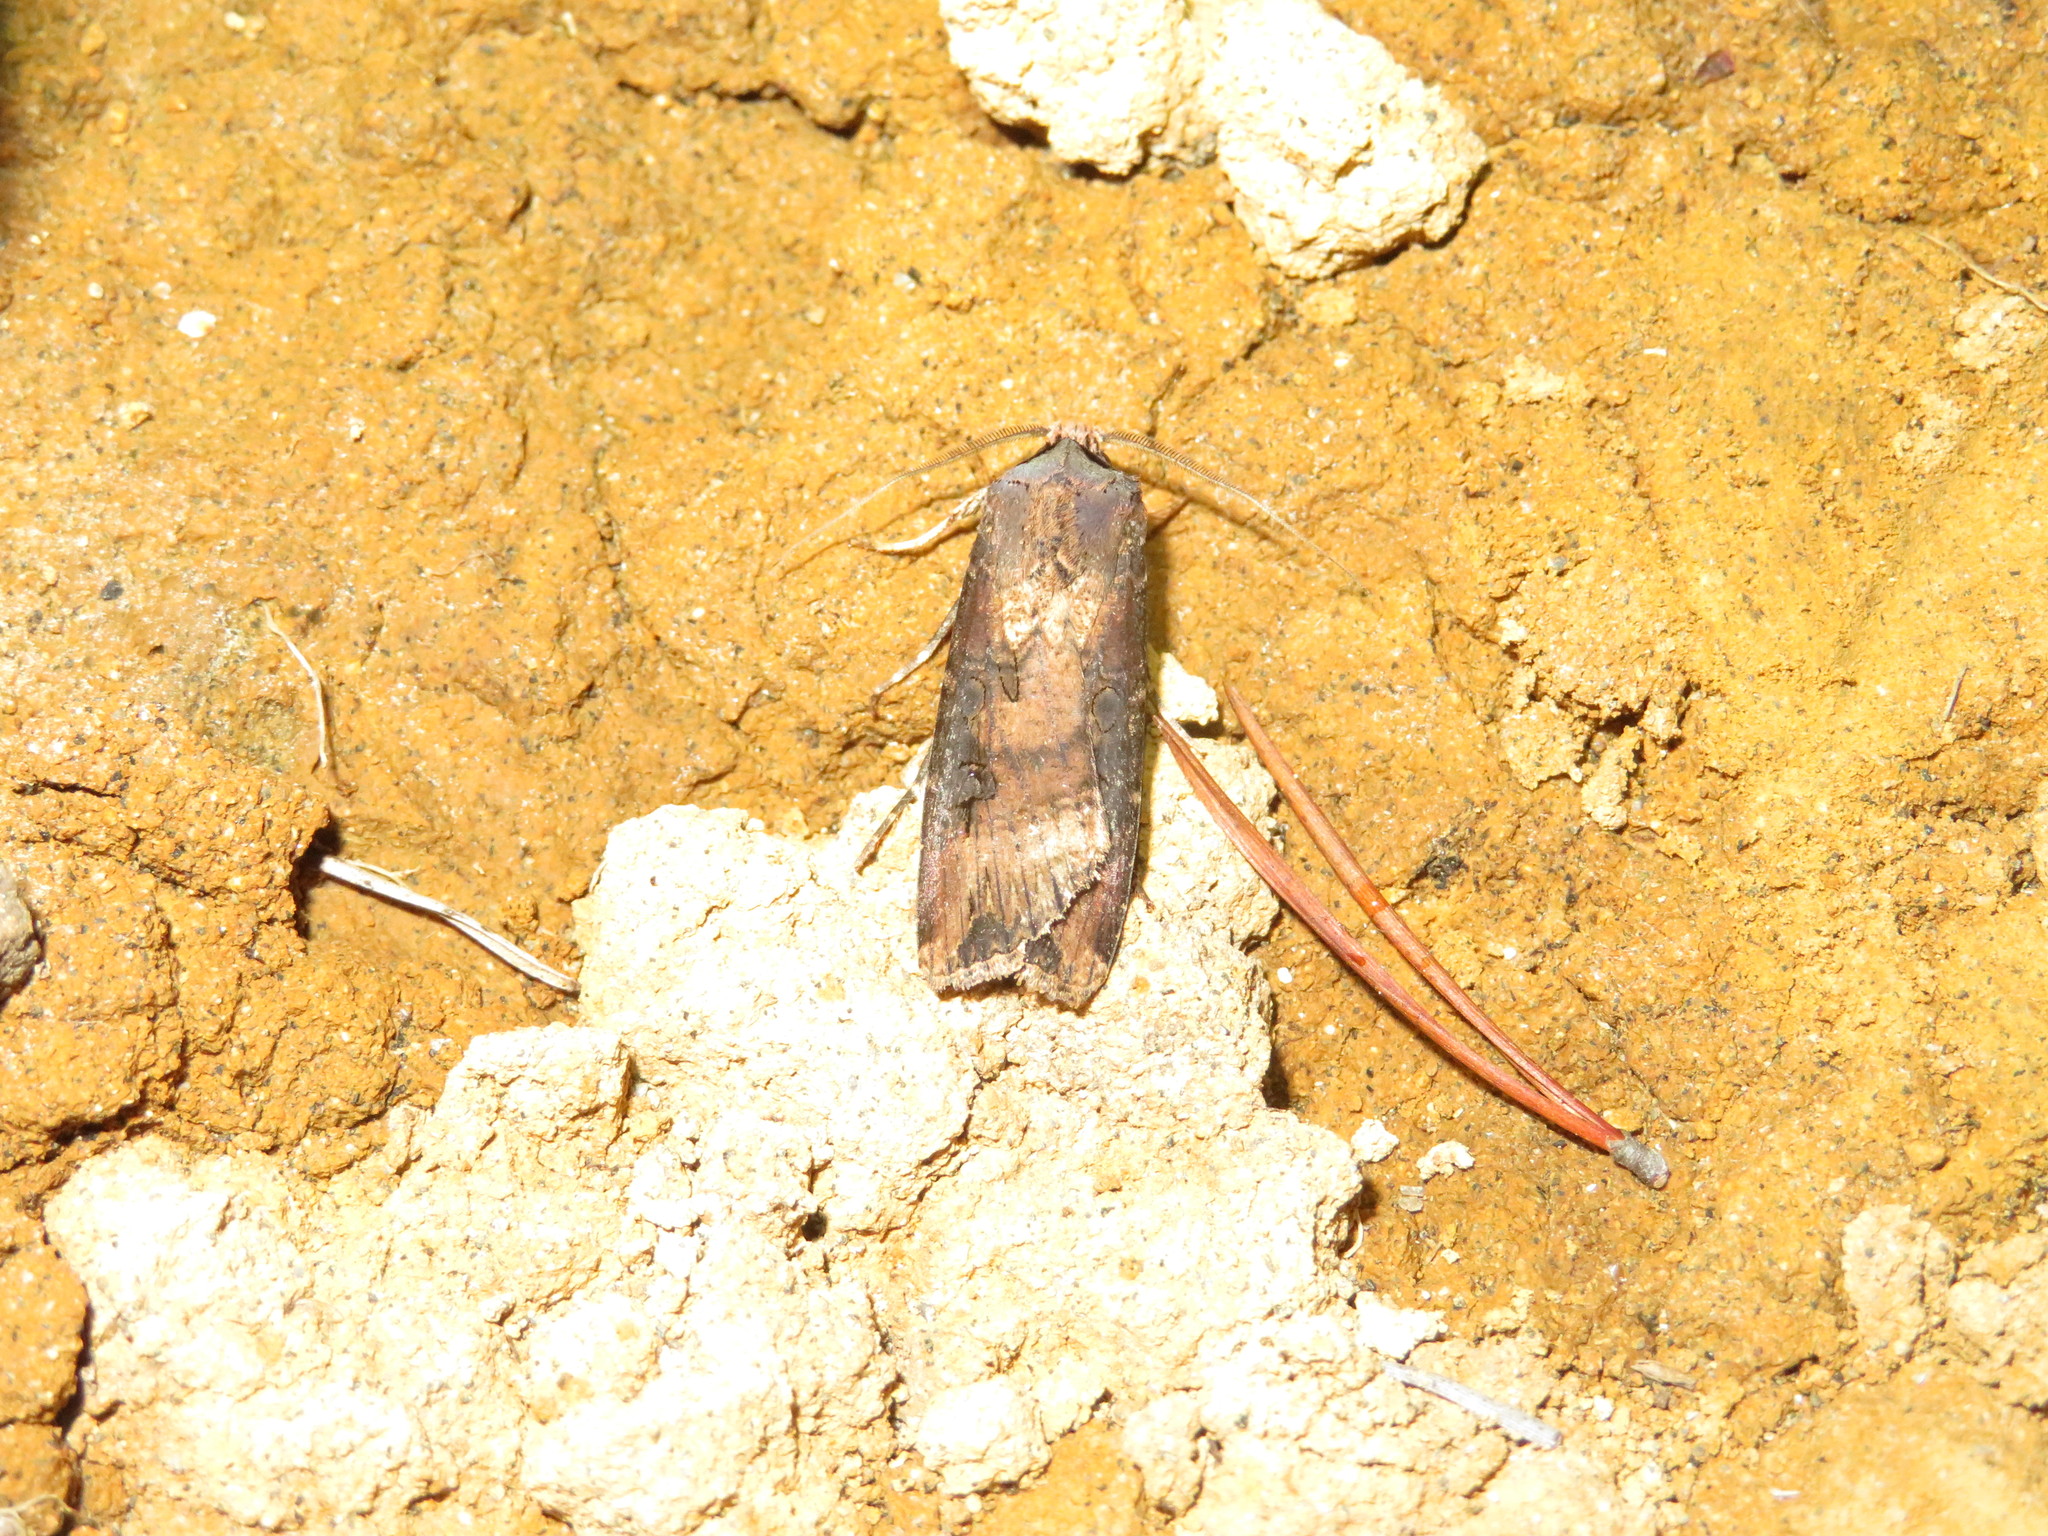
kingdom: Animalia
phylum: Arthropoda
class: Insecta
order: Lepidoptera
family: Noctuidae
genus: Agrotis
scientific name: Agrotis ipsilon
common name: Dark sword-grass
